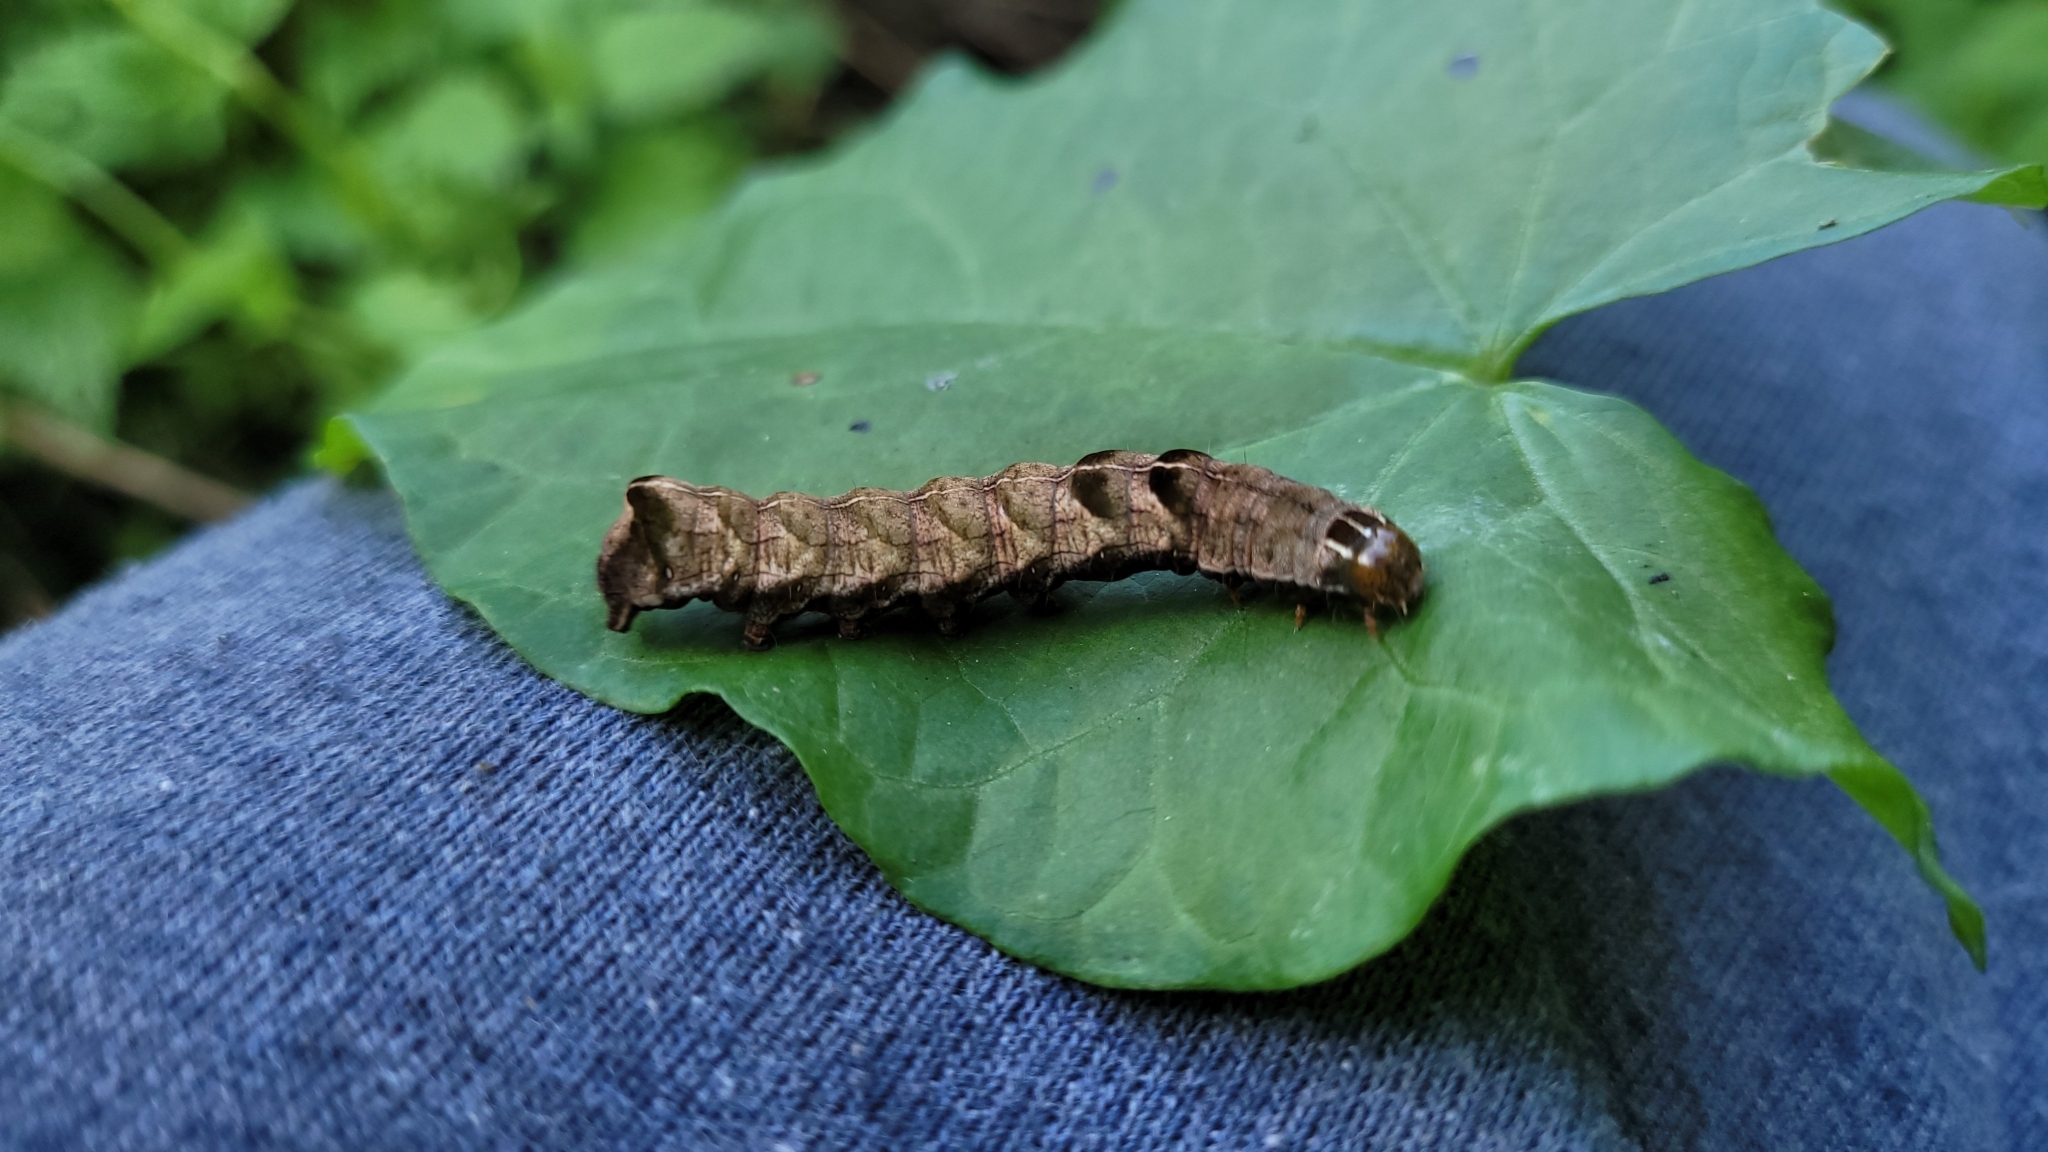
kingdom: Animalia
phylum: Arthropoda
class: Insecta
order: Lepidoptera
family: Noctuidae
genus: Melanchra
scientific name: Melanchra persicariae
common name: Dot moth
